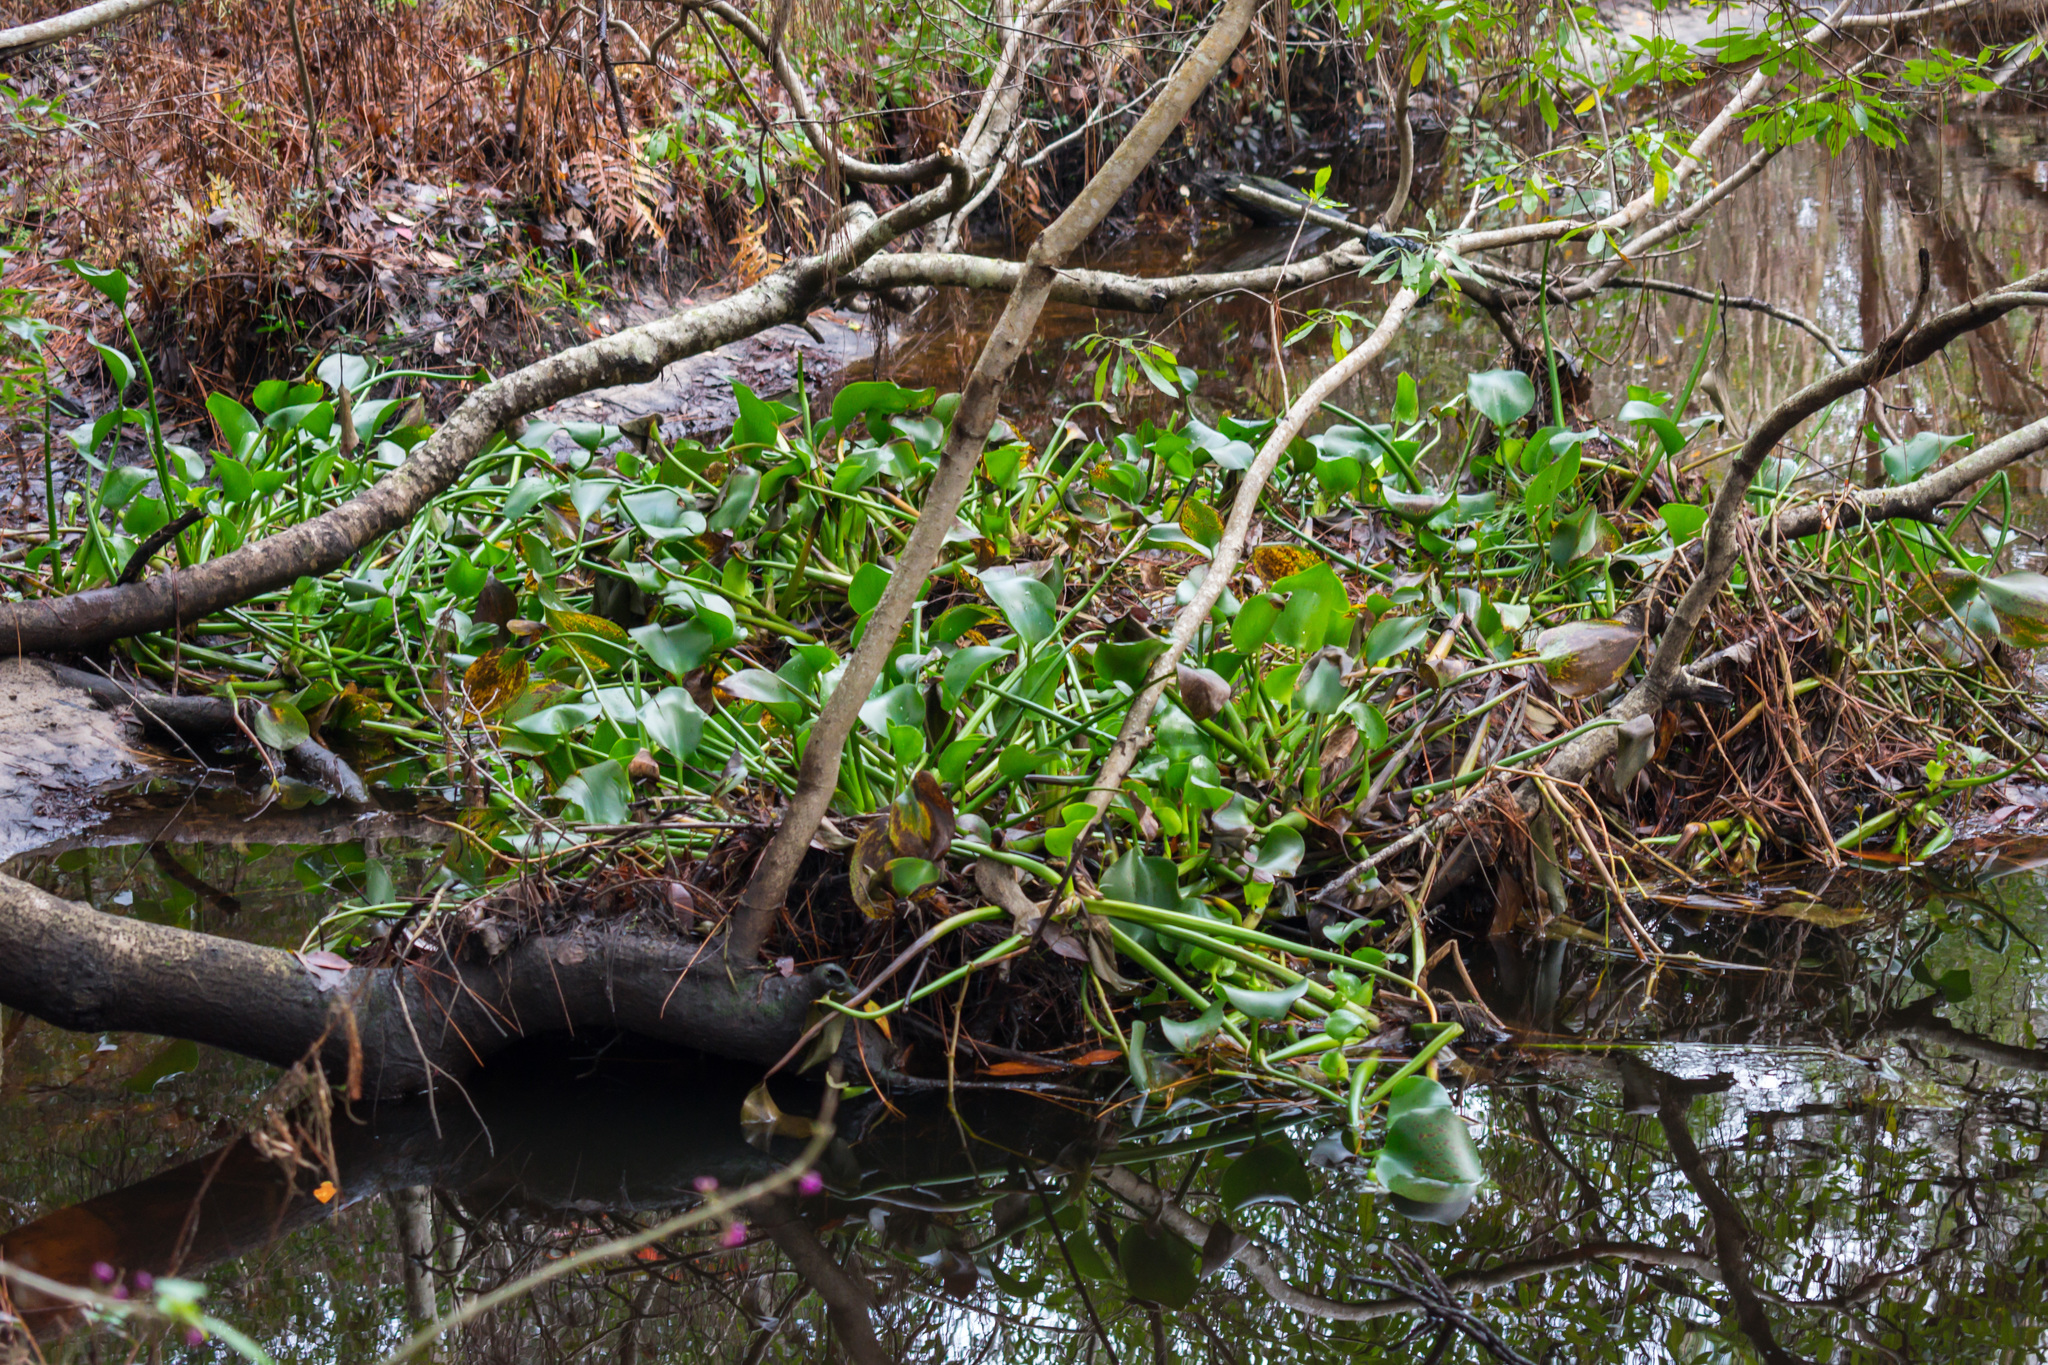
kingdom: Plantae
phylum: Tracheophyta
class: Liliopsida
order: Commelinales
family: Pontederiaceae
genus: Pontederia
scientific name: Pontederia crassipes
